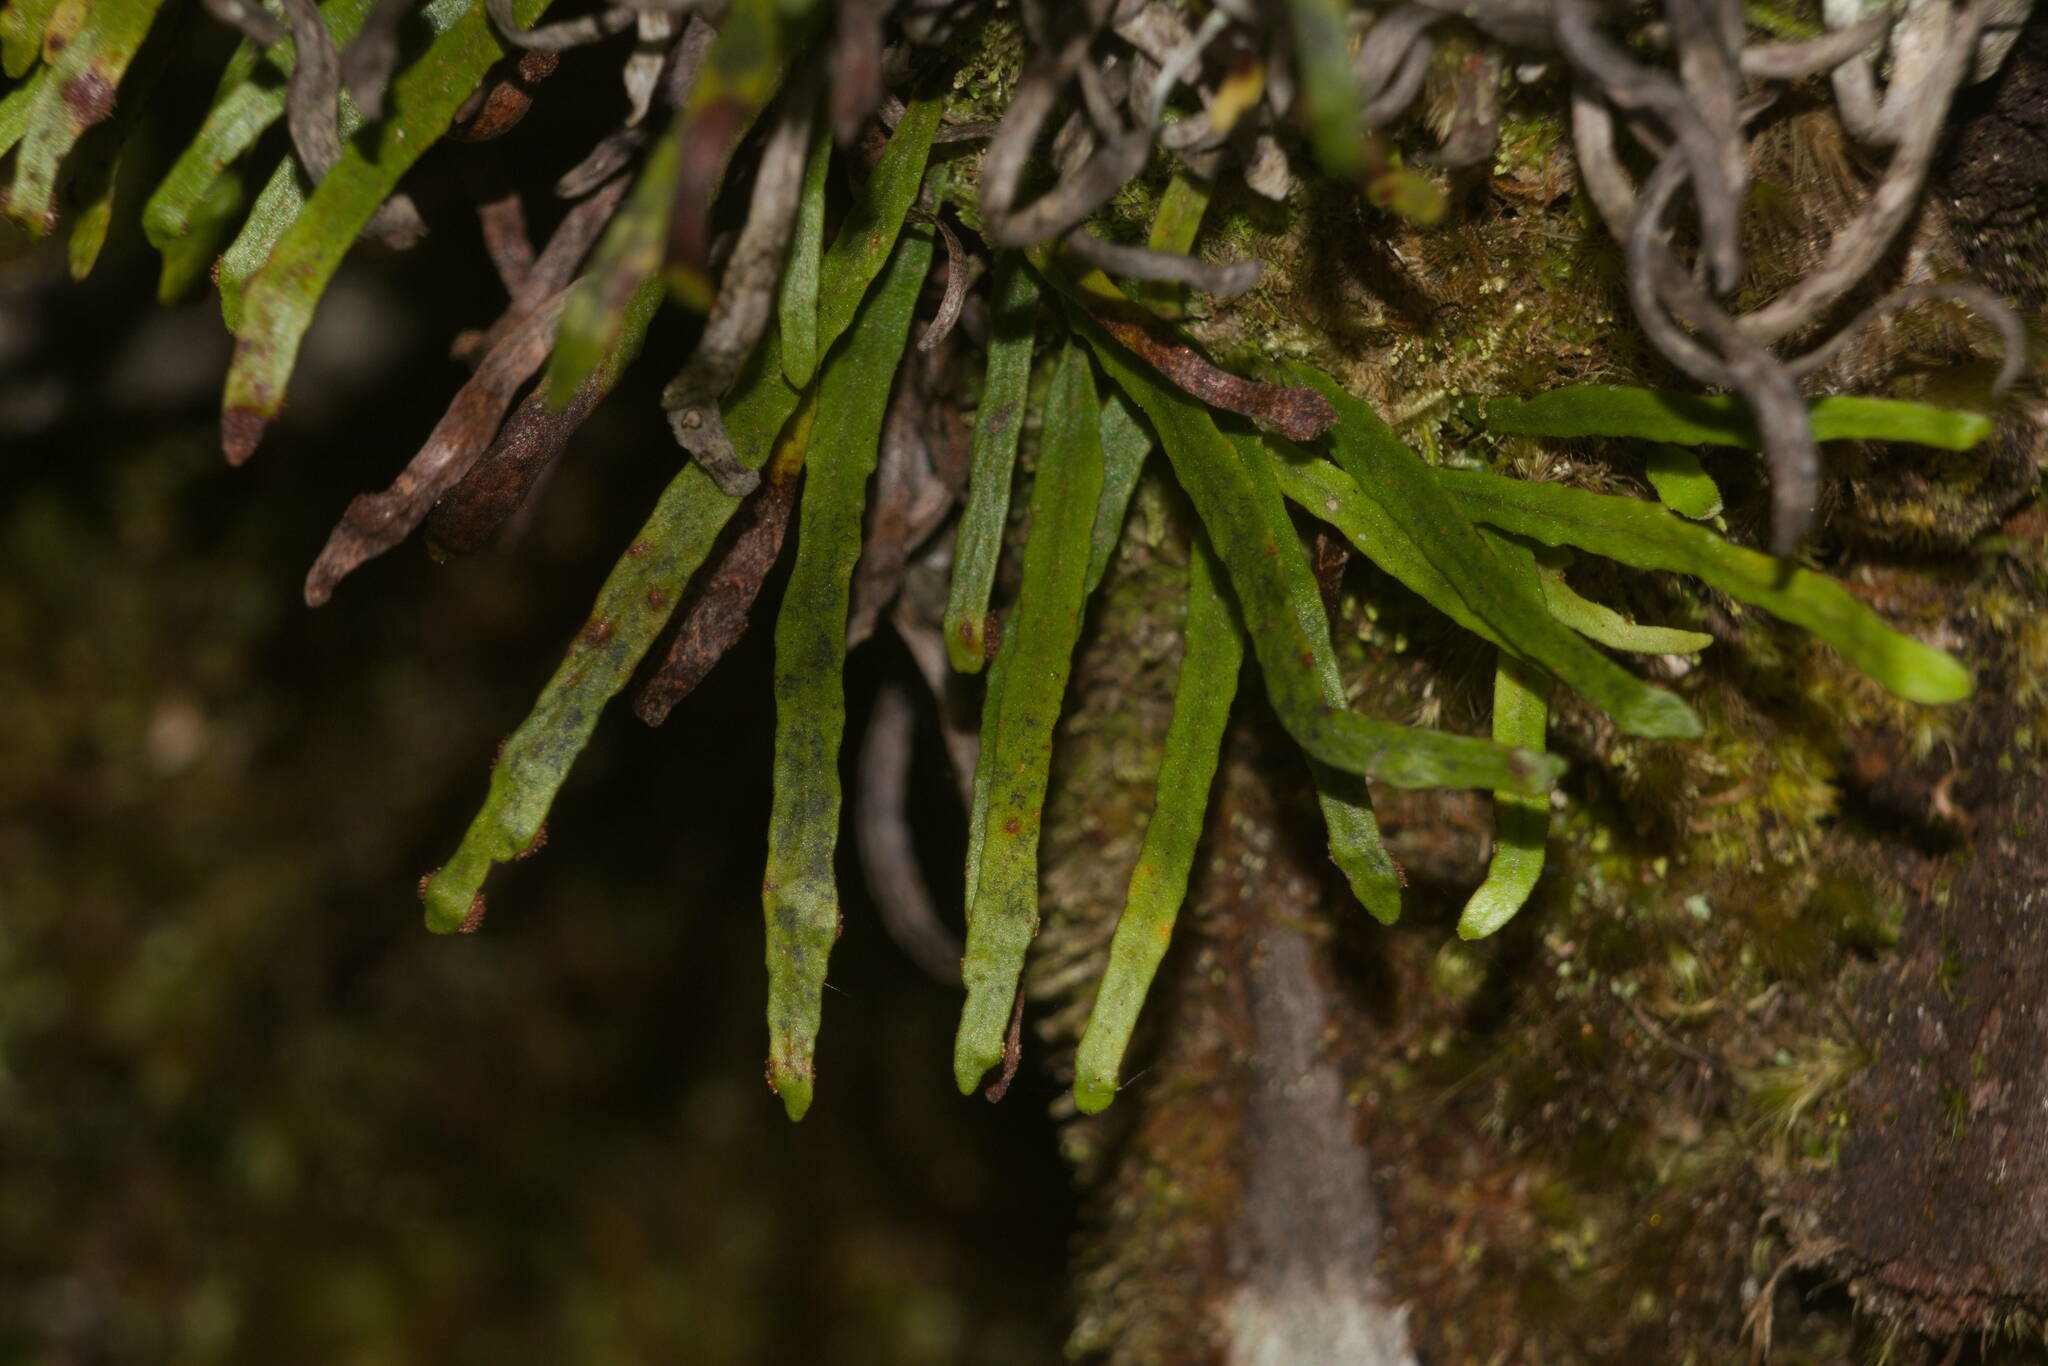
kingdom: Plantae
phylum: Tracheophyta
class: Polypodiopsida
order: Polypodiales
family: Polypodiaceae
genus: Adenophorus
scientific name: Adenophorus tenellus
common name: Kolokolo
